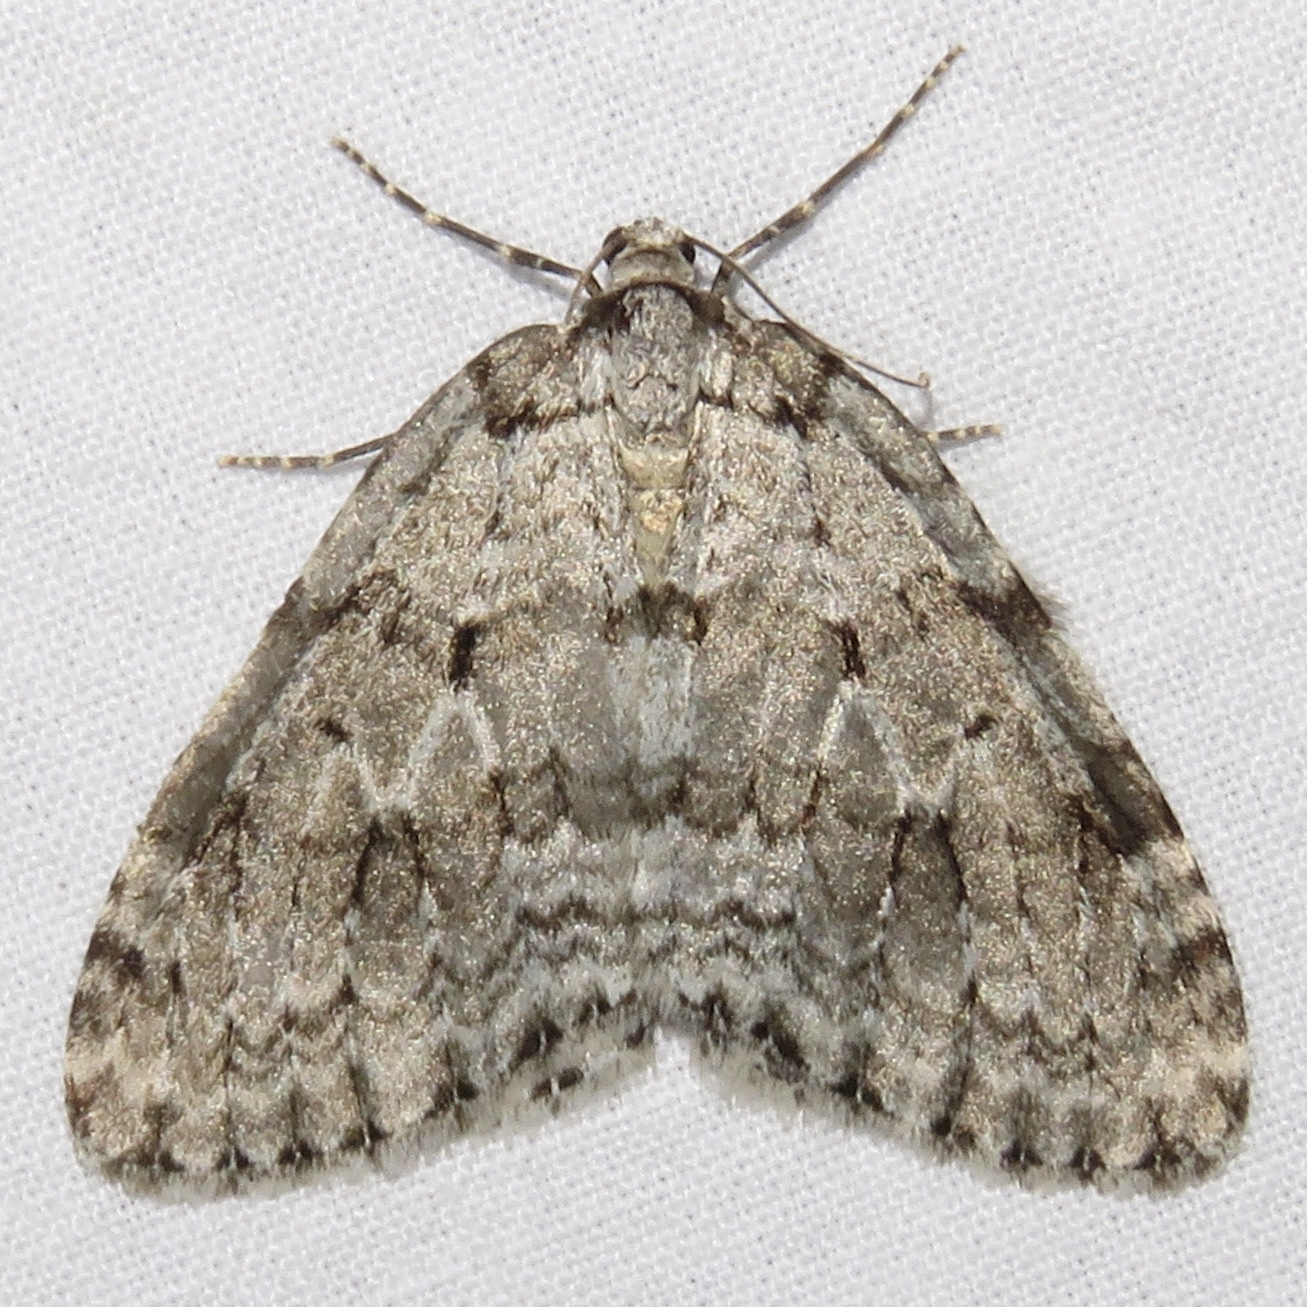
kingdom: Animalia
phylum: Arthropoda
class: Insecta
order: Lepidoptera
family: Geometridae
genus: Epirrita
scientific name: Epirrita autumnata
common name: Autumnal moth
